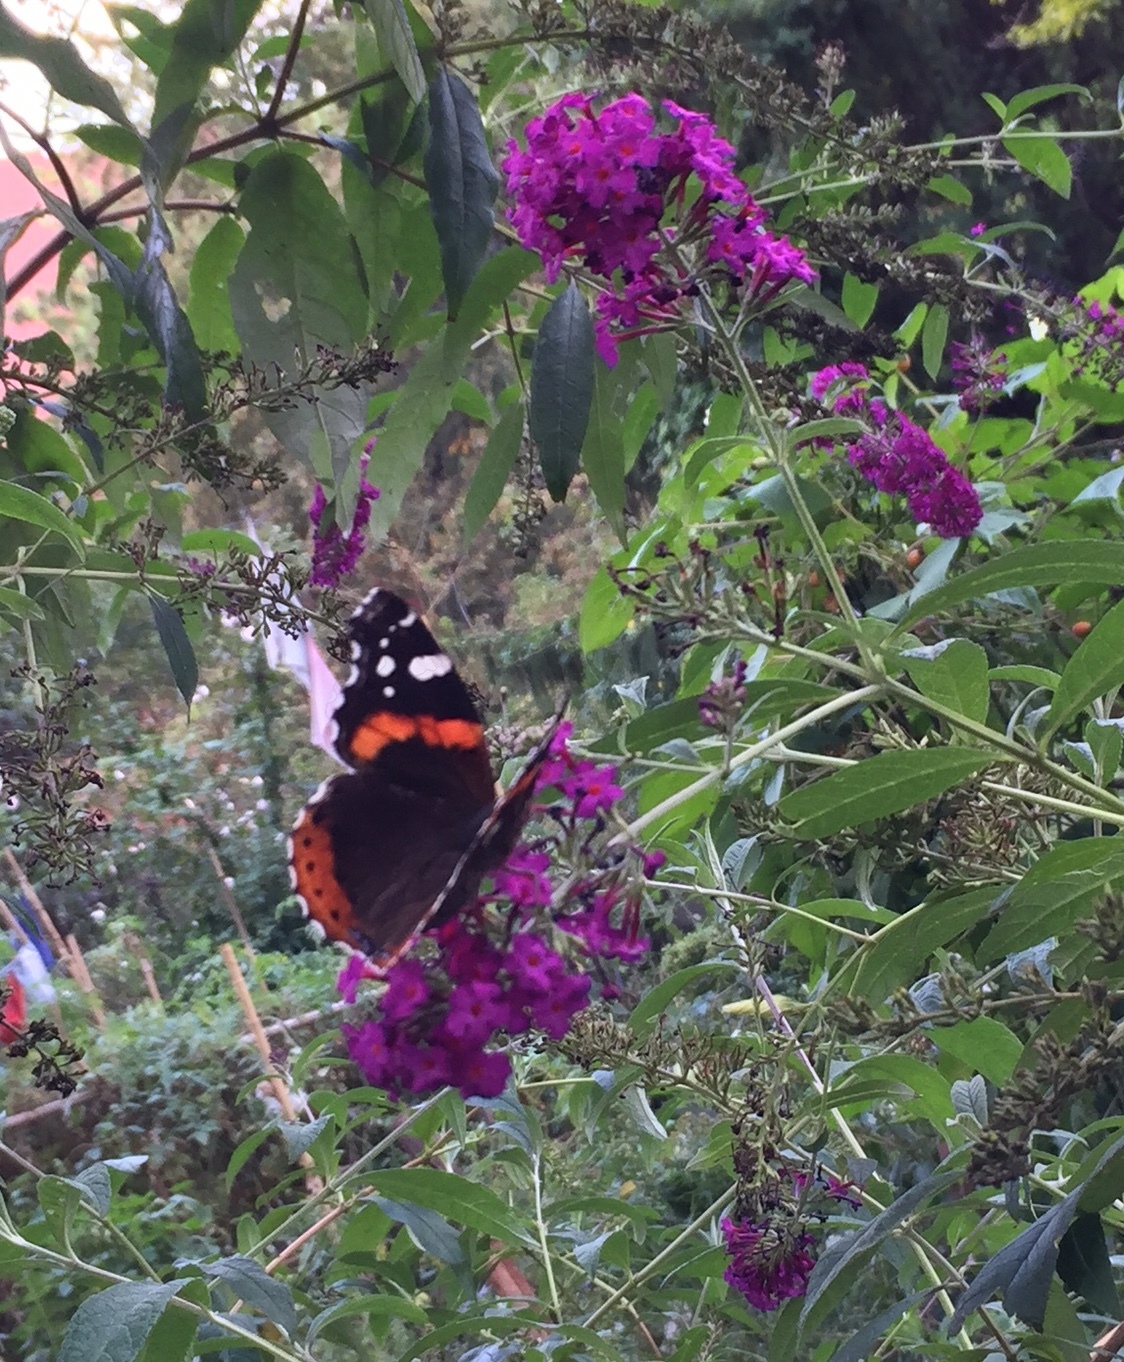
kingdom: Animalia
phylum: Arthropoda
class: Insecta
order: Lepidoptera
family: Nymphalidae
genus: Vanessa
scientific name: Vanessa atalanta
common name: Red admiral
